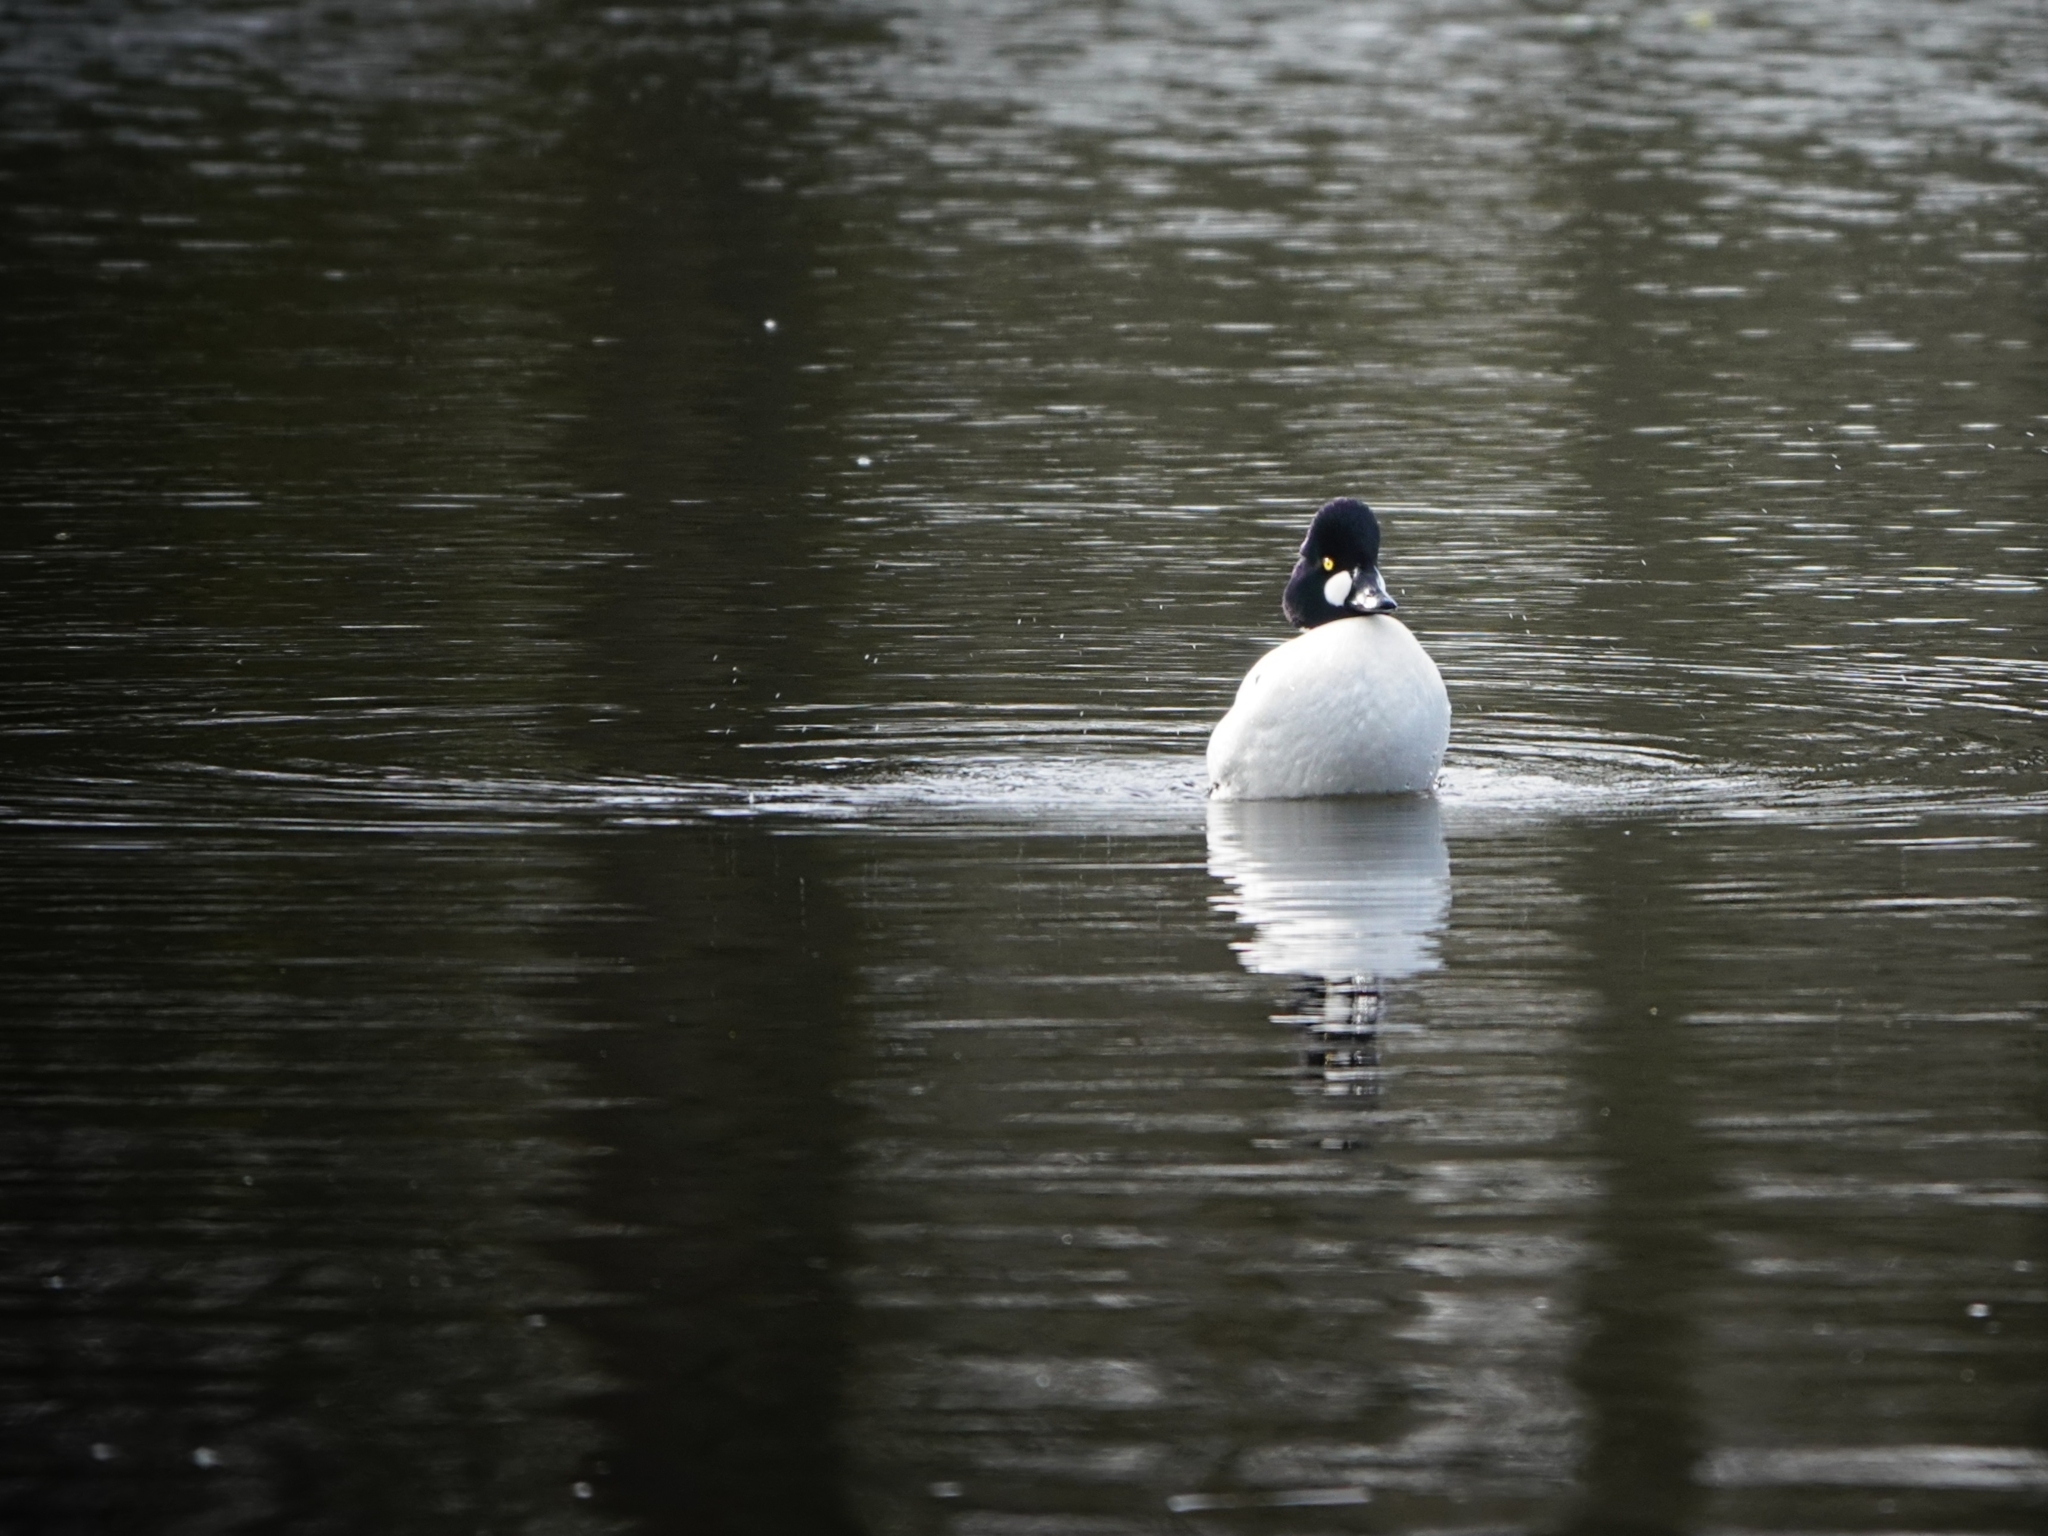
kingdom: Animalia
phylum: Chordata
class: Aves
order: Anseriformes
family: Anatidae
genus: Bucephala
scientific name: Bucephala clangula
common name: Common goldeneye
